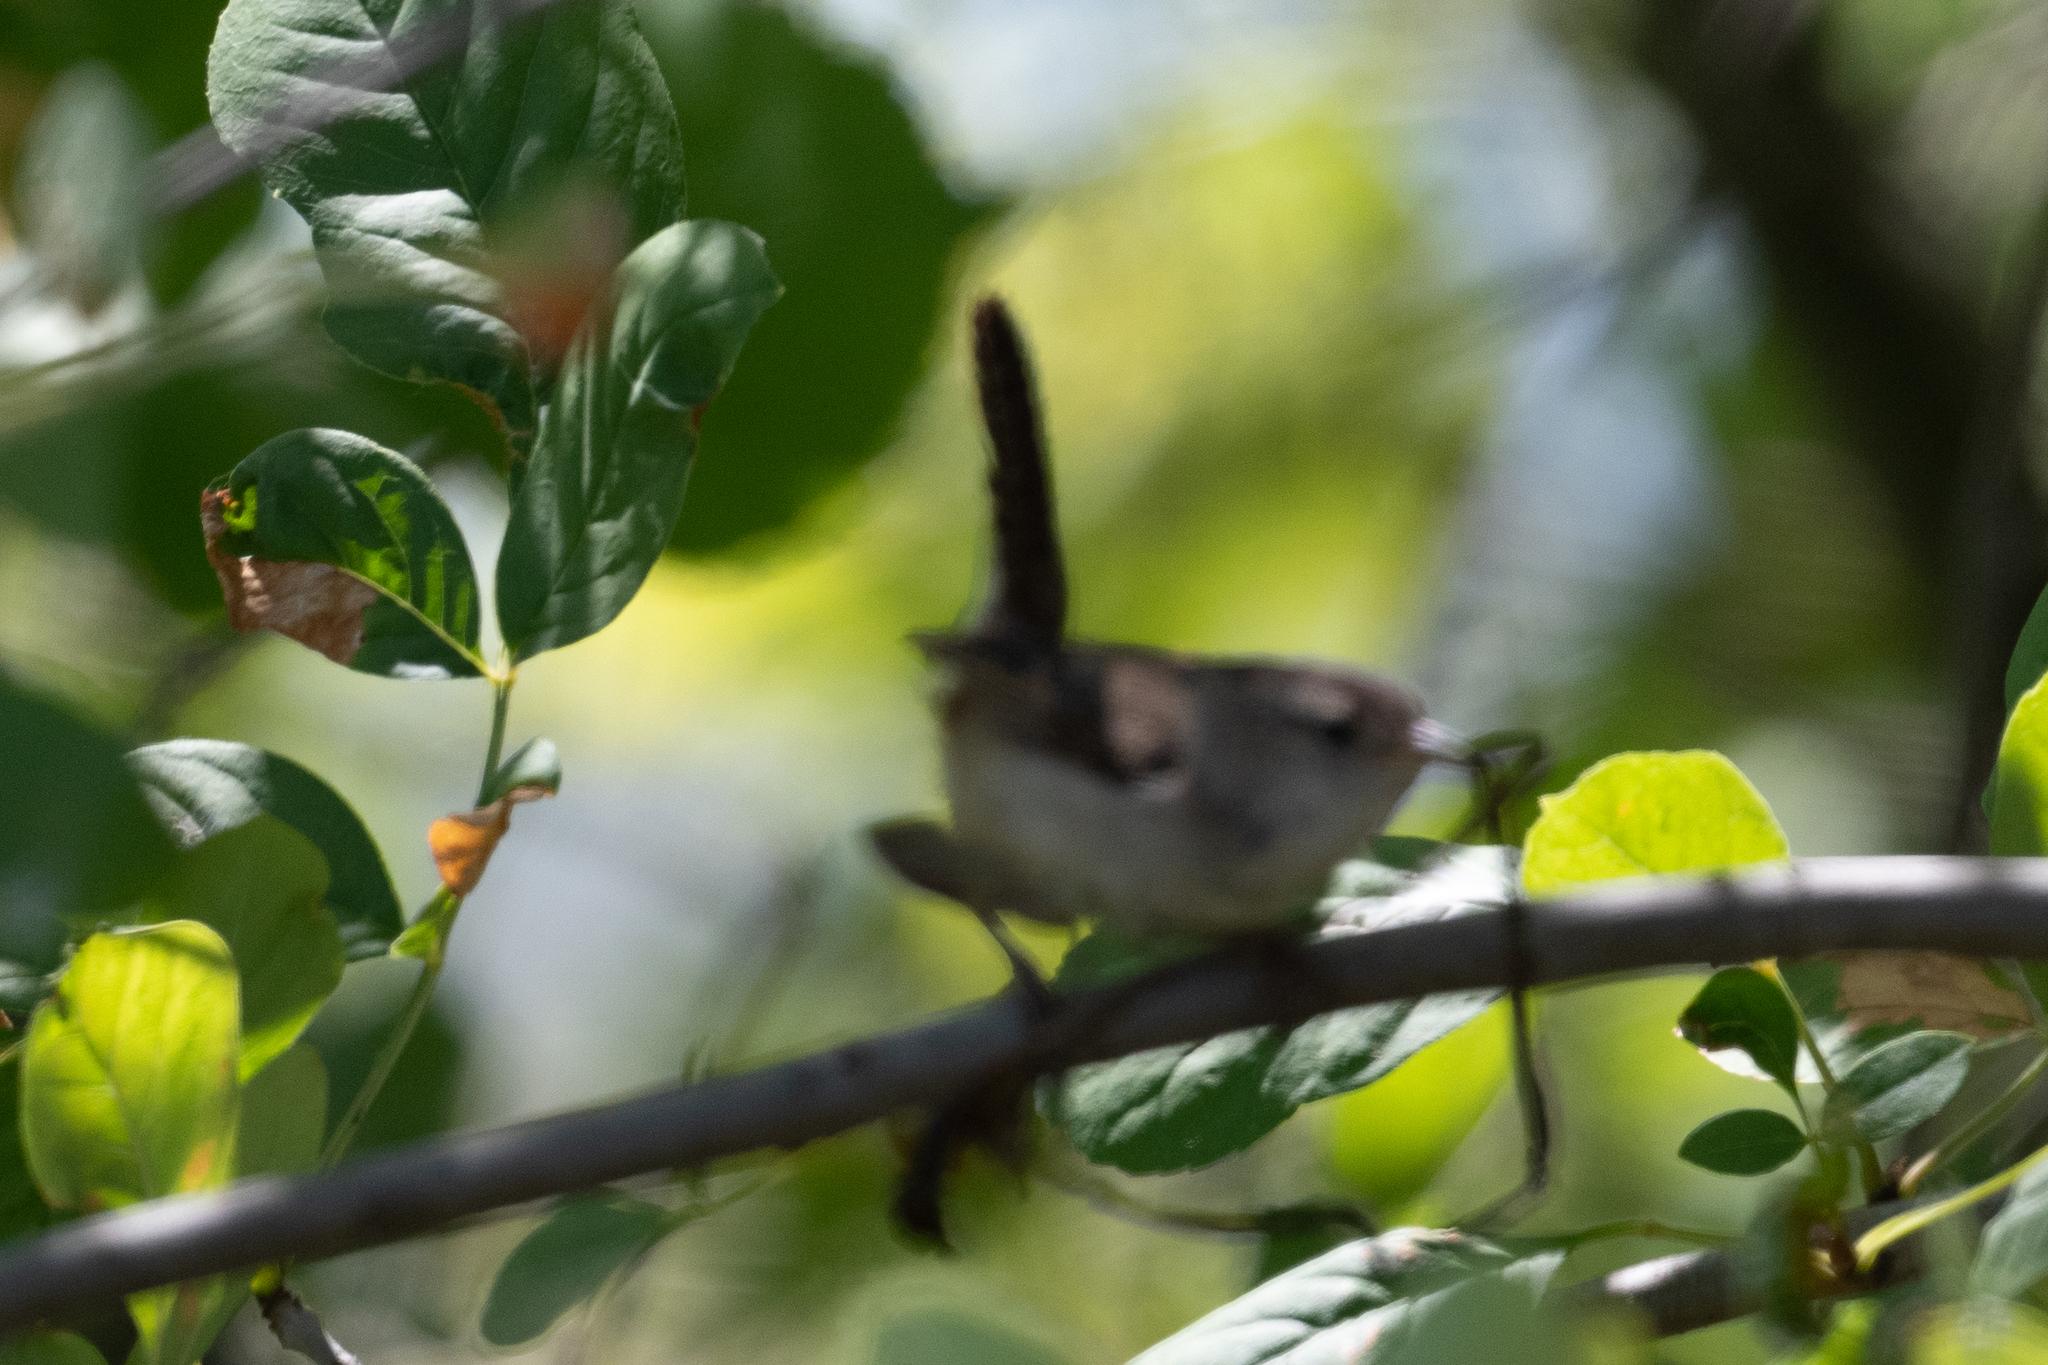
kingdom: Animalia
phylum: Chordata
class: Aves
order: Passeriformes
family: Troglodytidae
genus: Cistothorus
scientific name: Cistothorus palustris
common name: Marsh wren
